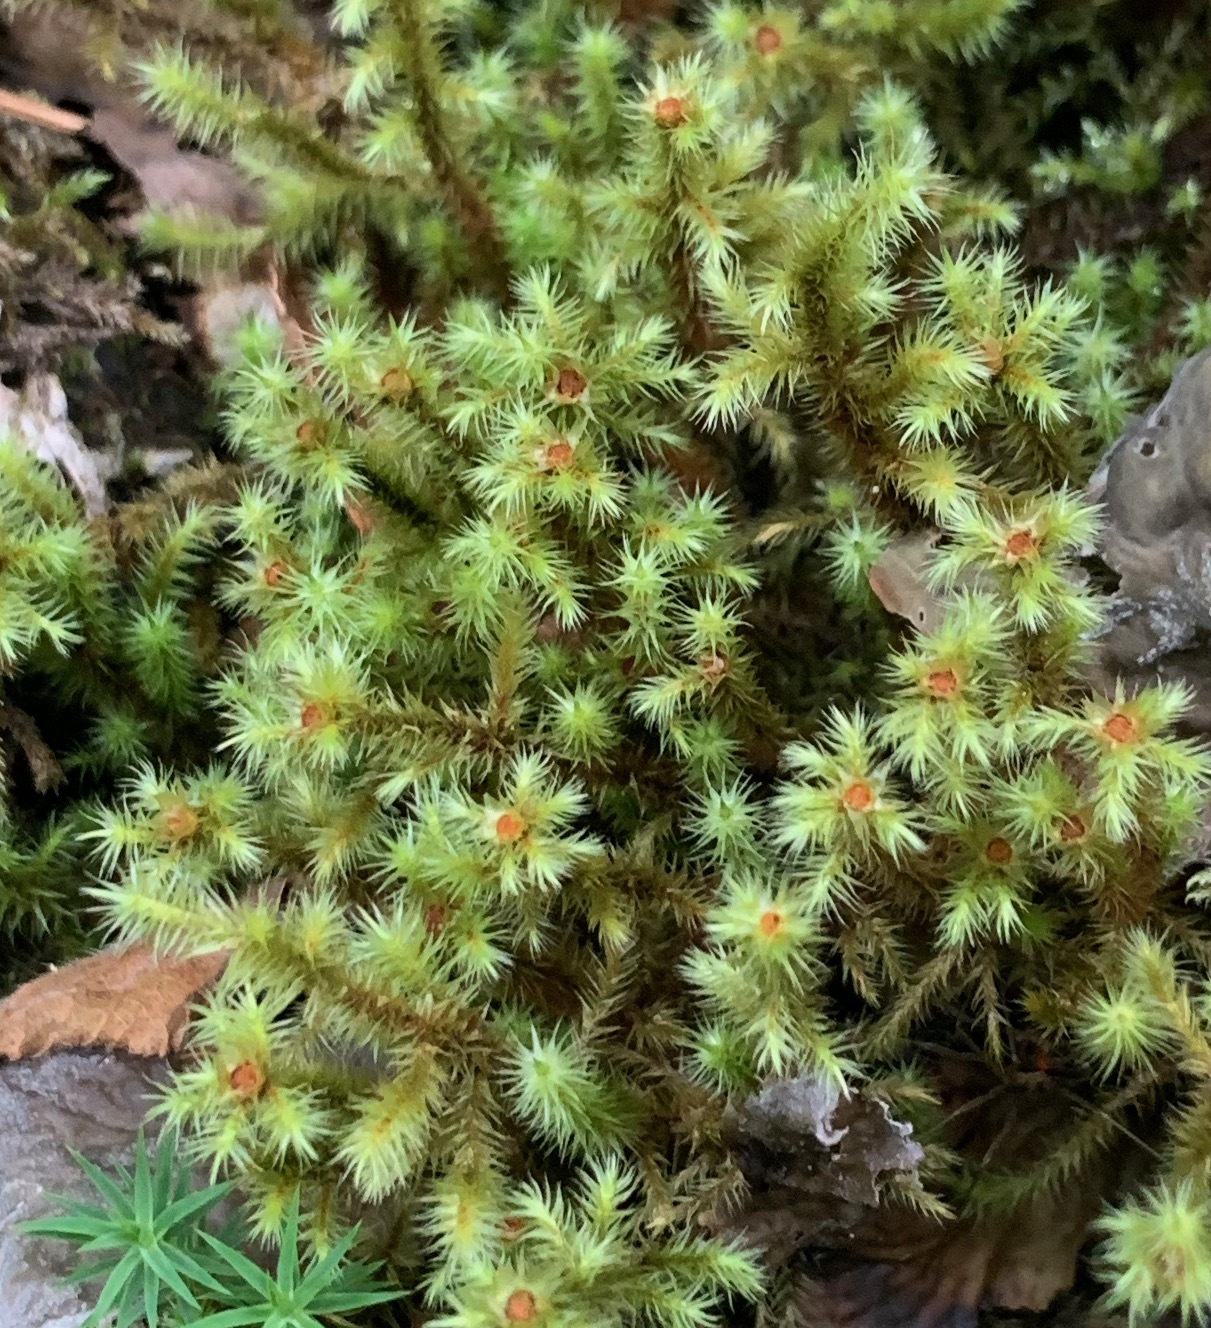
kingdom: Plantae
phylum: Bryophyta
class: Bryopsida
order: Bartramiales
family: Bartramiaceae
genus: Breutelia
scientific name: Breutelia chrysocoma
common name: Bottle-brush moss
